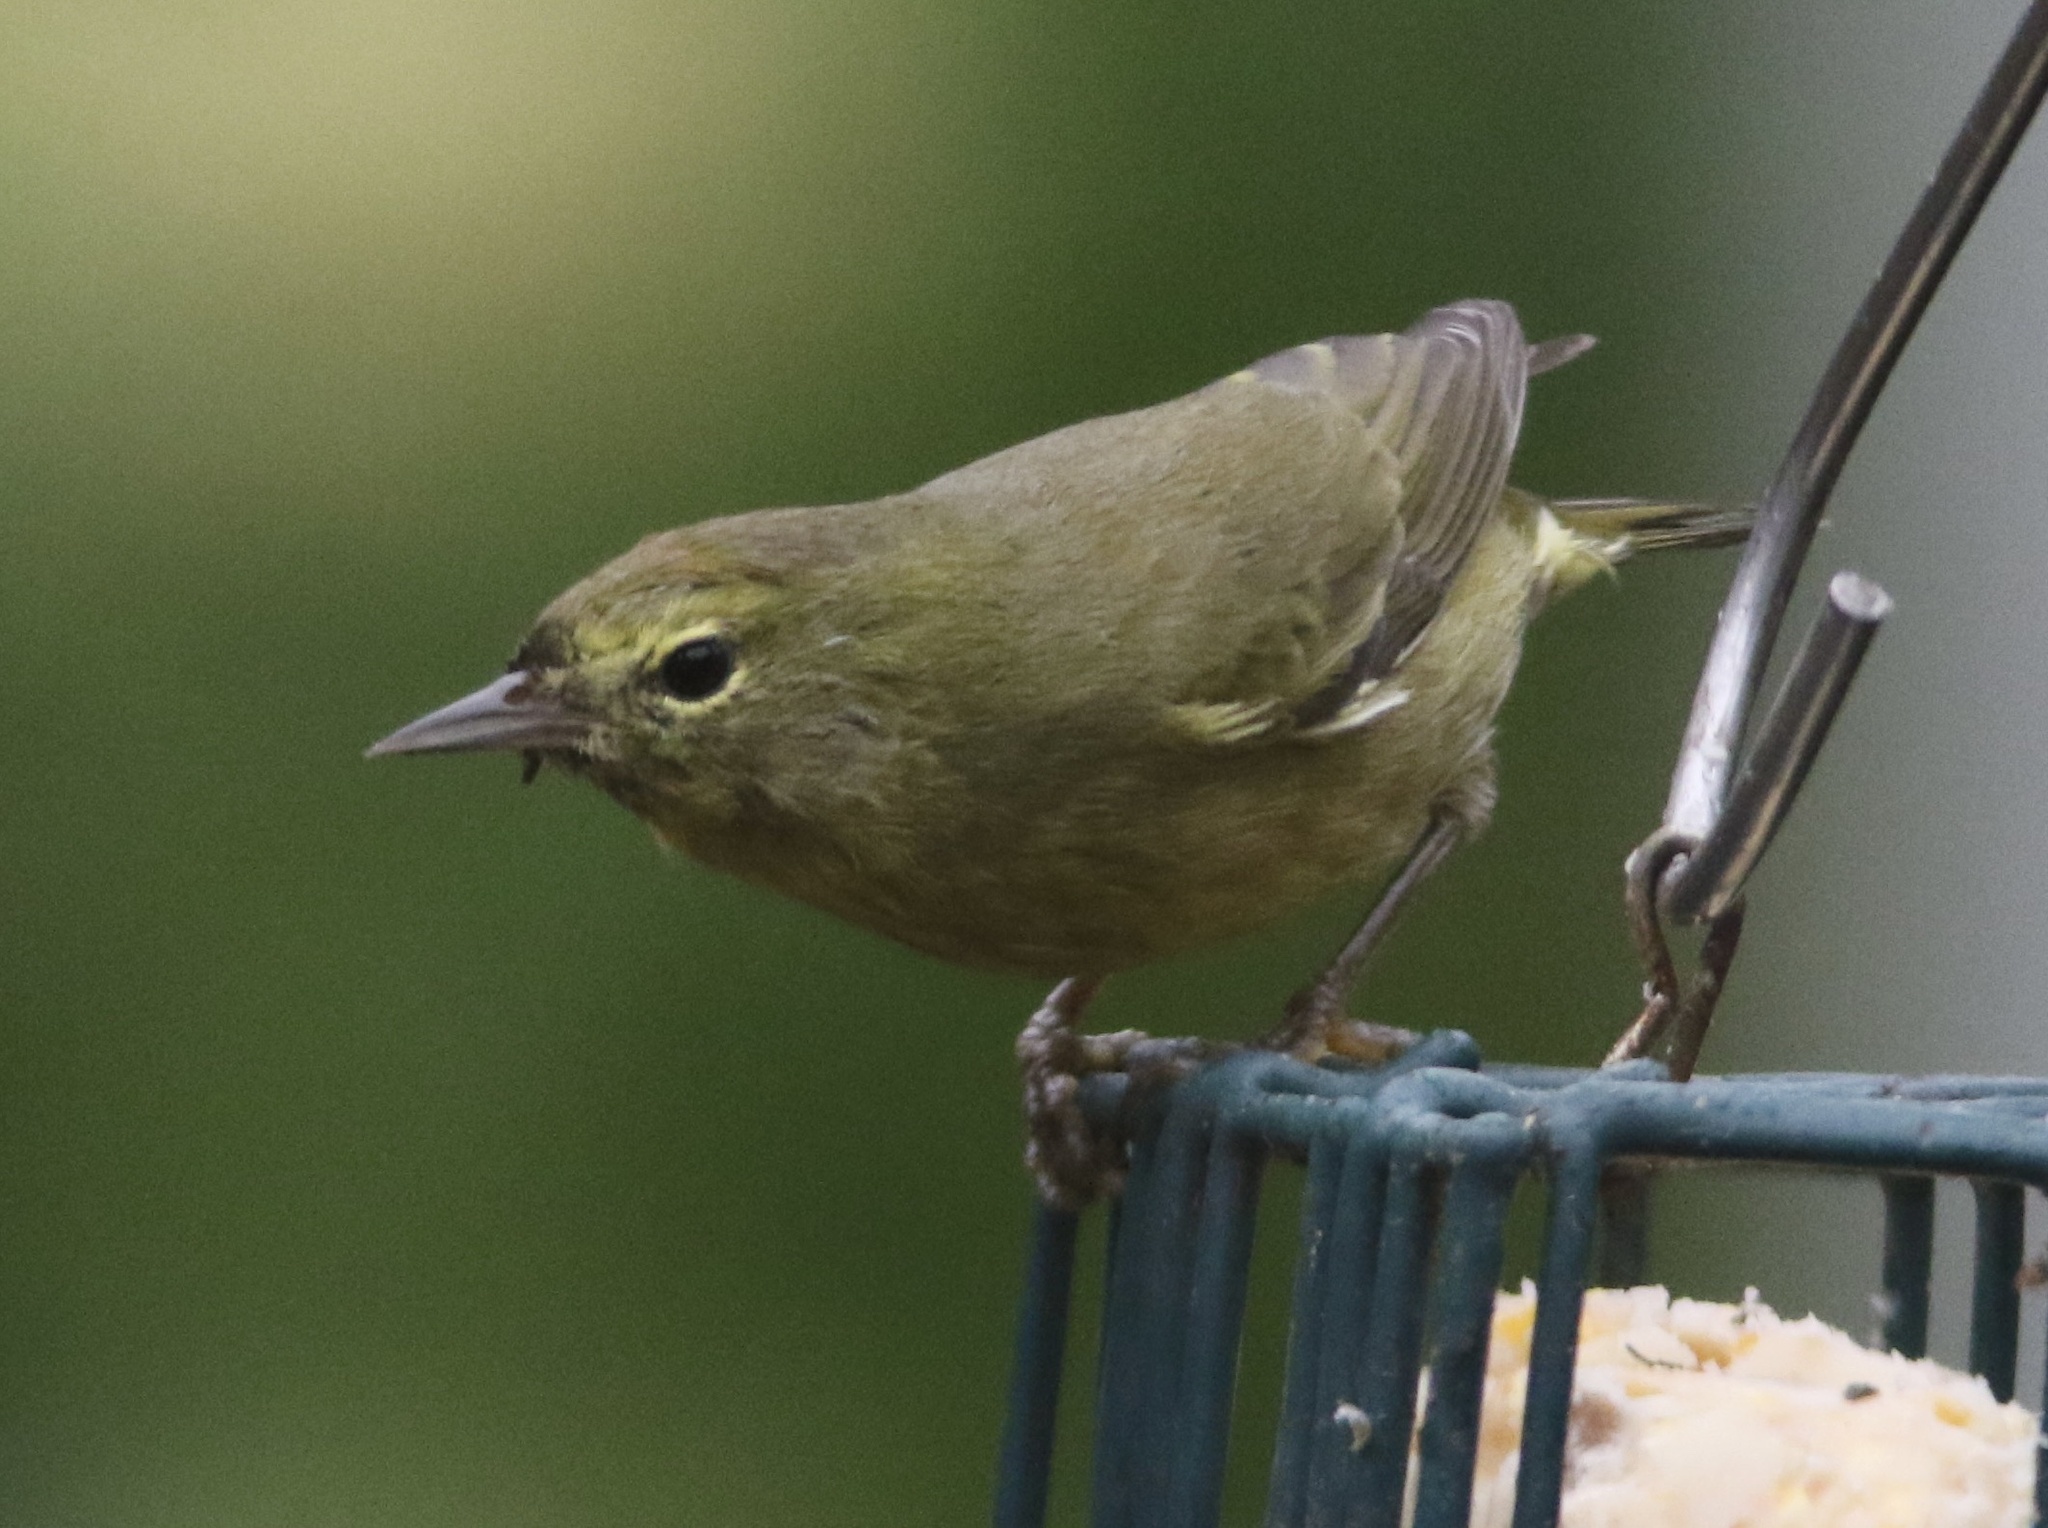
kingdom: Animalia
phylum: Chordata
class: Aves
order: Passeriformes
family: Parulidae
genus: Leiothlypis
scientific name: Leiothlypis celata
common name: Orange-crowned warbler
